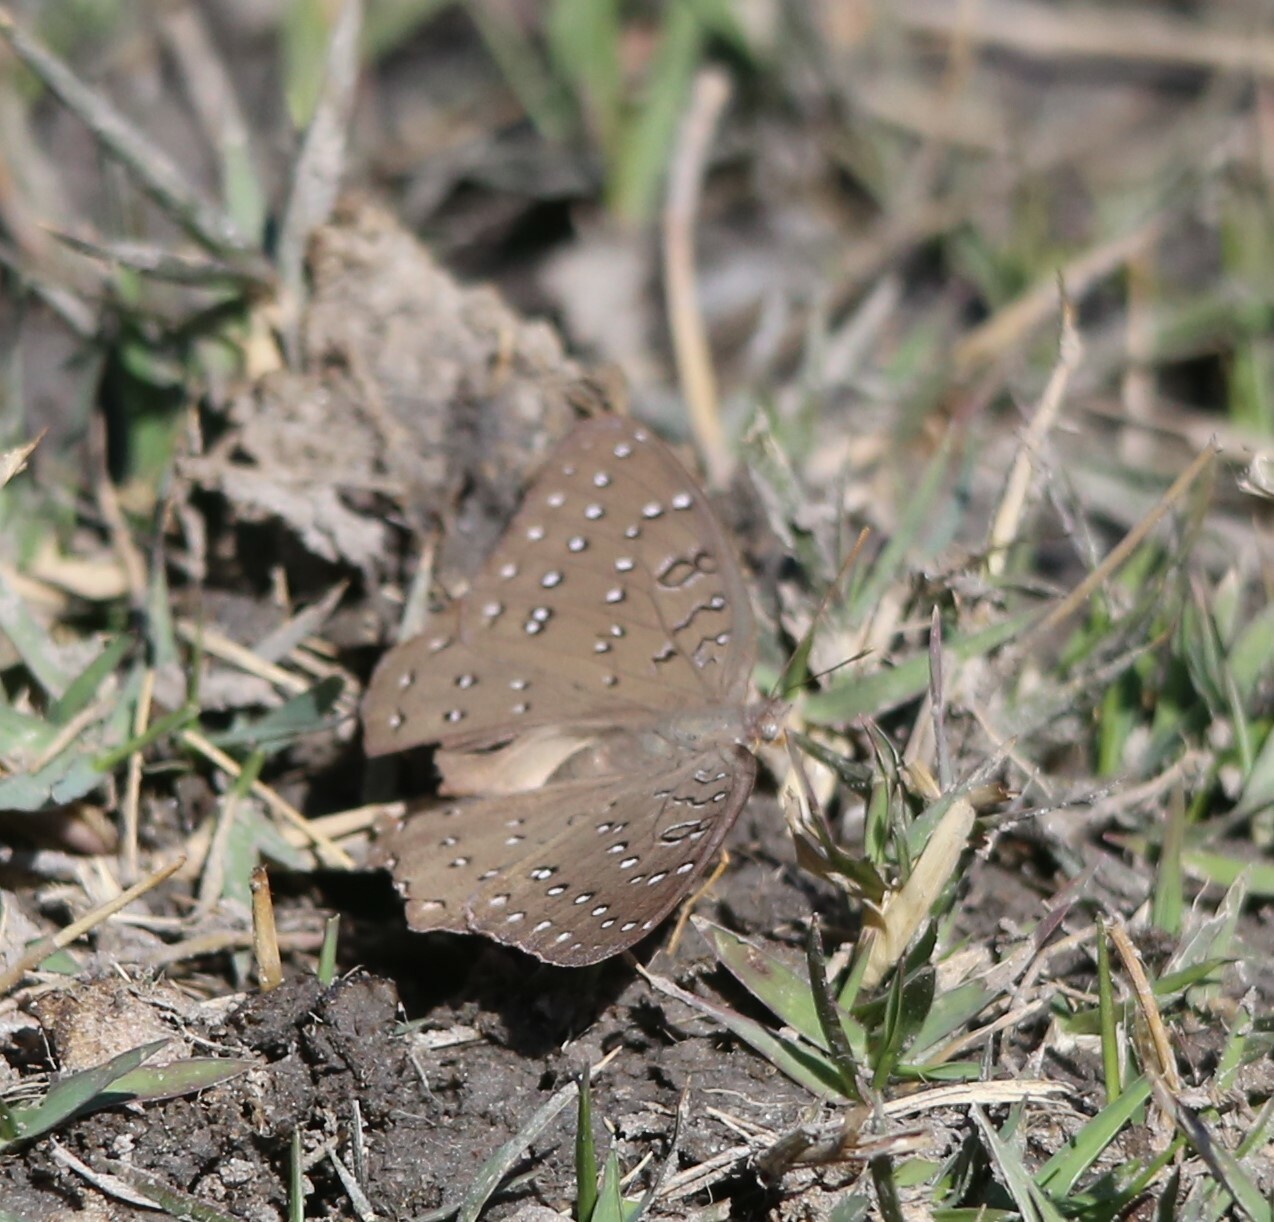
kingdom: Animalia
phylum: Arthropoda
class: Insecta
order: Lepidoptera
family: Nymphalidae
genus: Hamanumida
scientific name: Hamanumida daedalus
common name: Guinea-fowl butterfly
